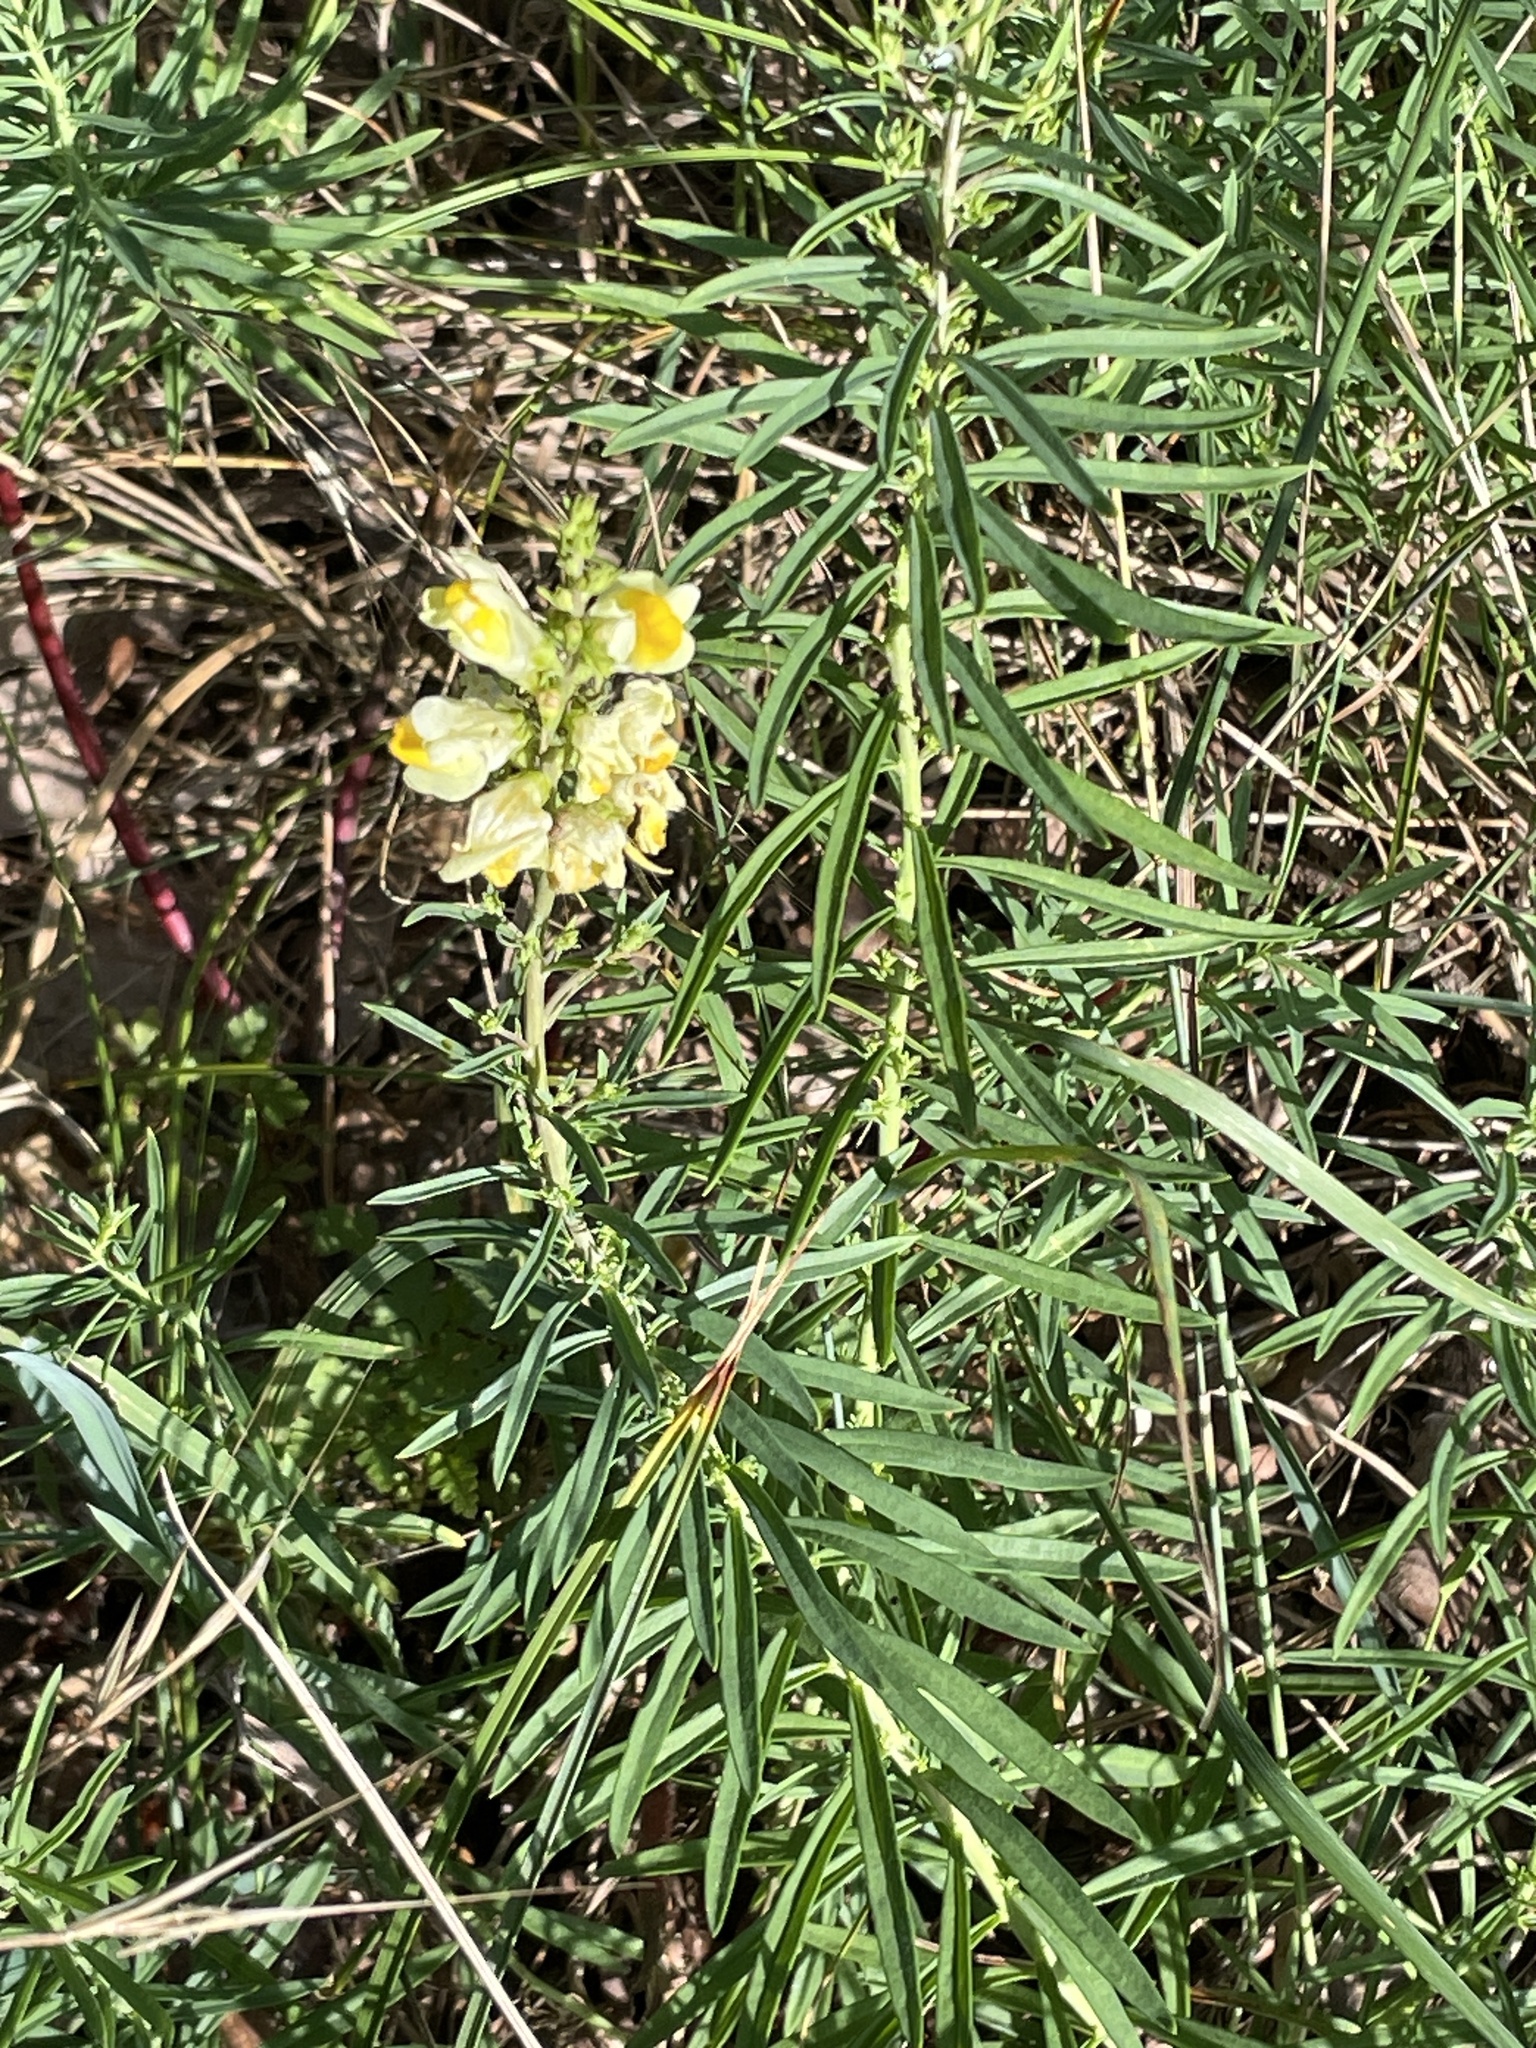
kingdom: Plantae
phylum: Tracheophyta
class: Magnoliopsida
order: Lamiales
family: Plantaginaceae
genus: Linaria
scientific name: Linaria vulgaris
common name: Butter and eggs
